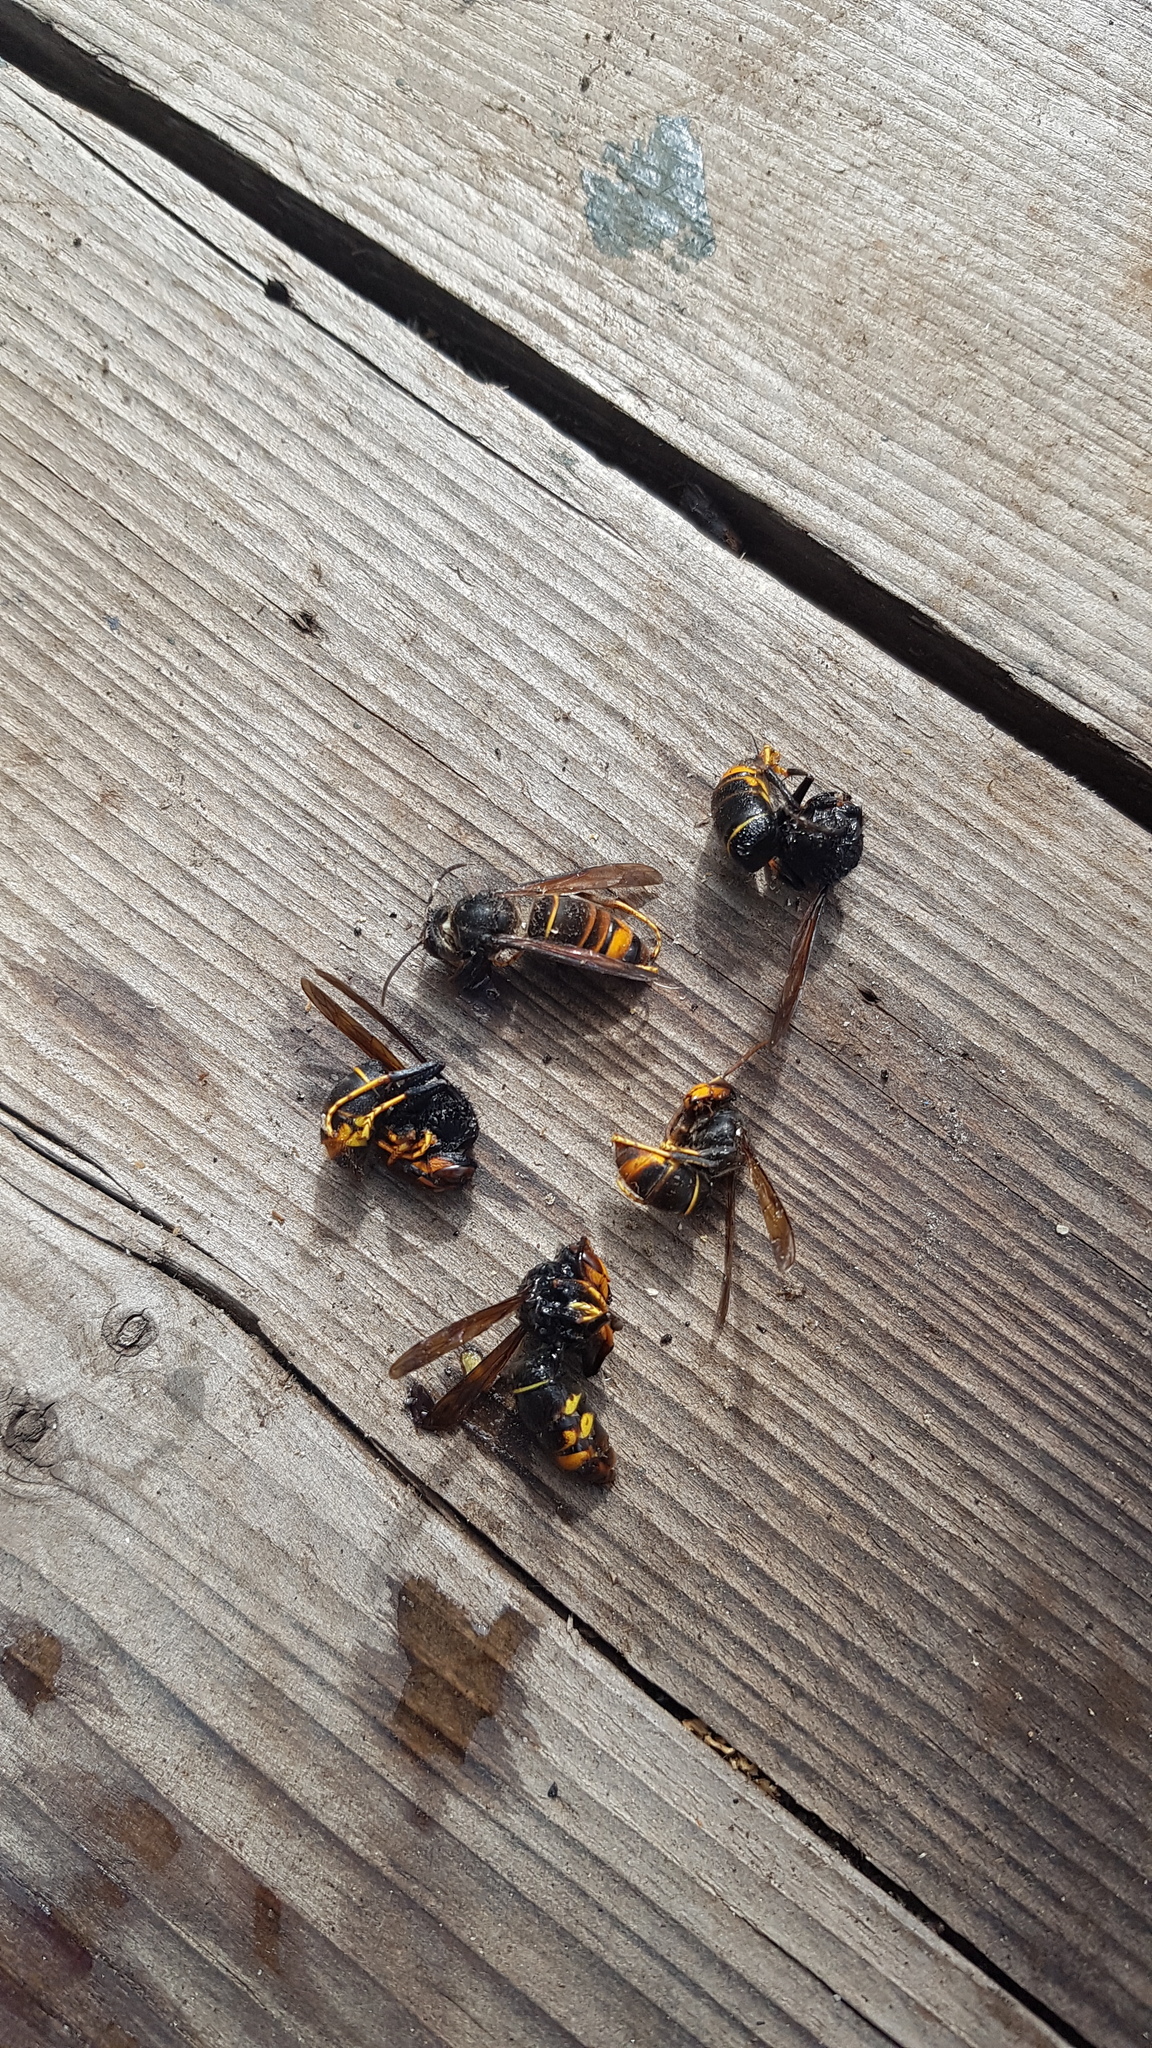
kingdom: Animalia
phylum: Arthropoda
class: Insecta
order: Hymenoptera
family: Vespidae
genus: Vespa
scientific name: Vespa velutina
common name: Asian hornet
